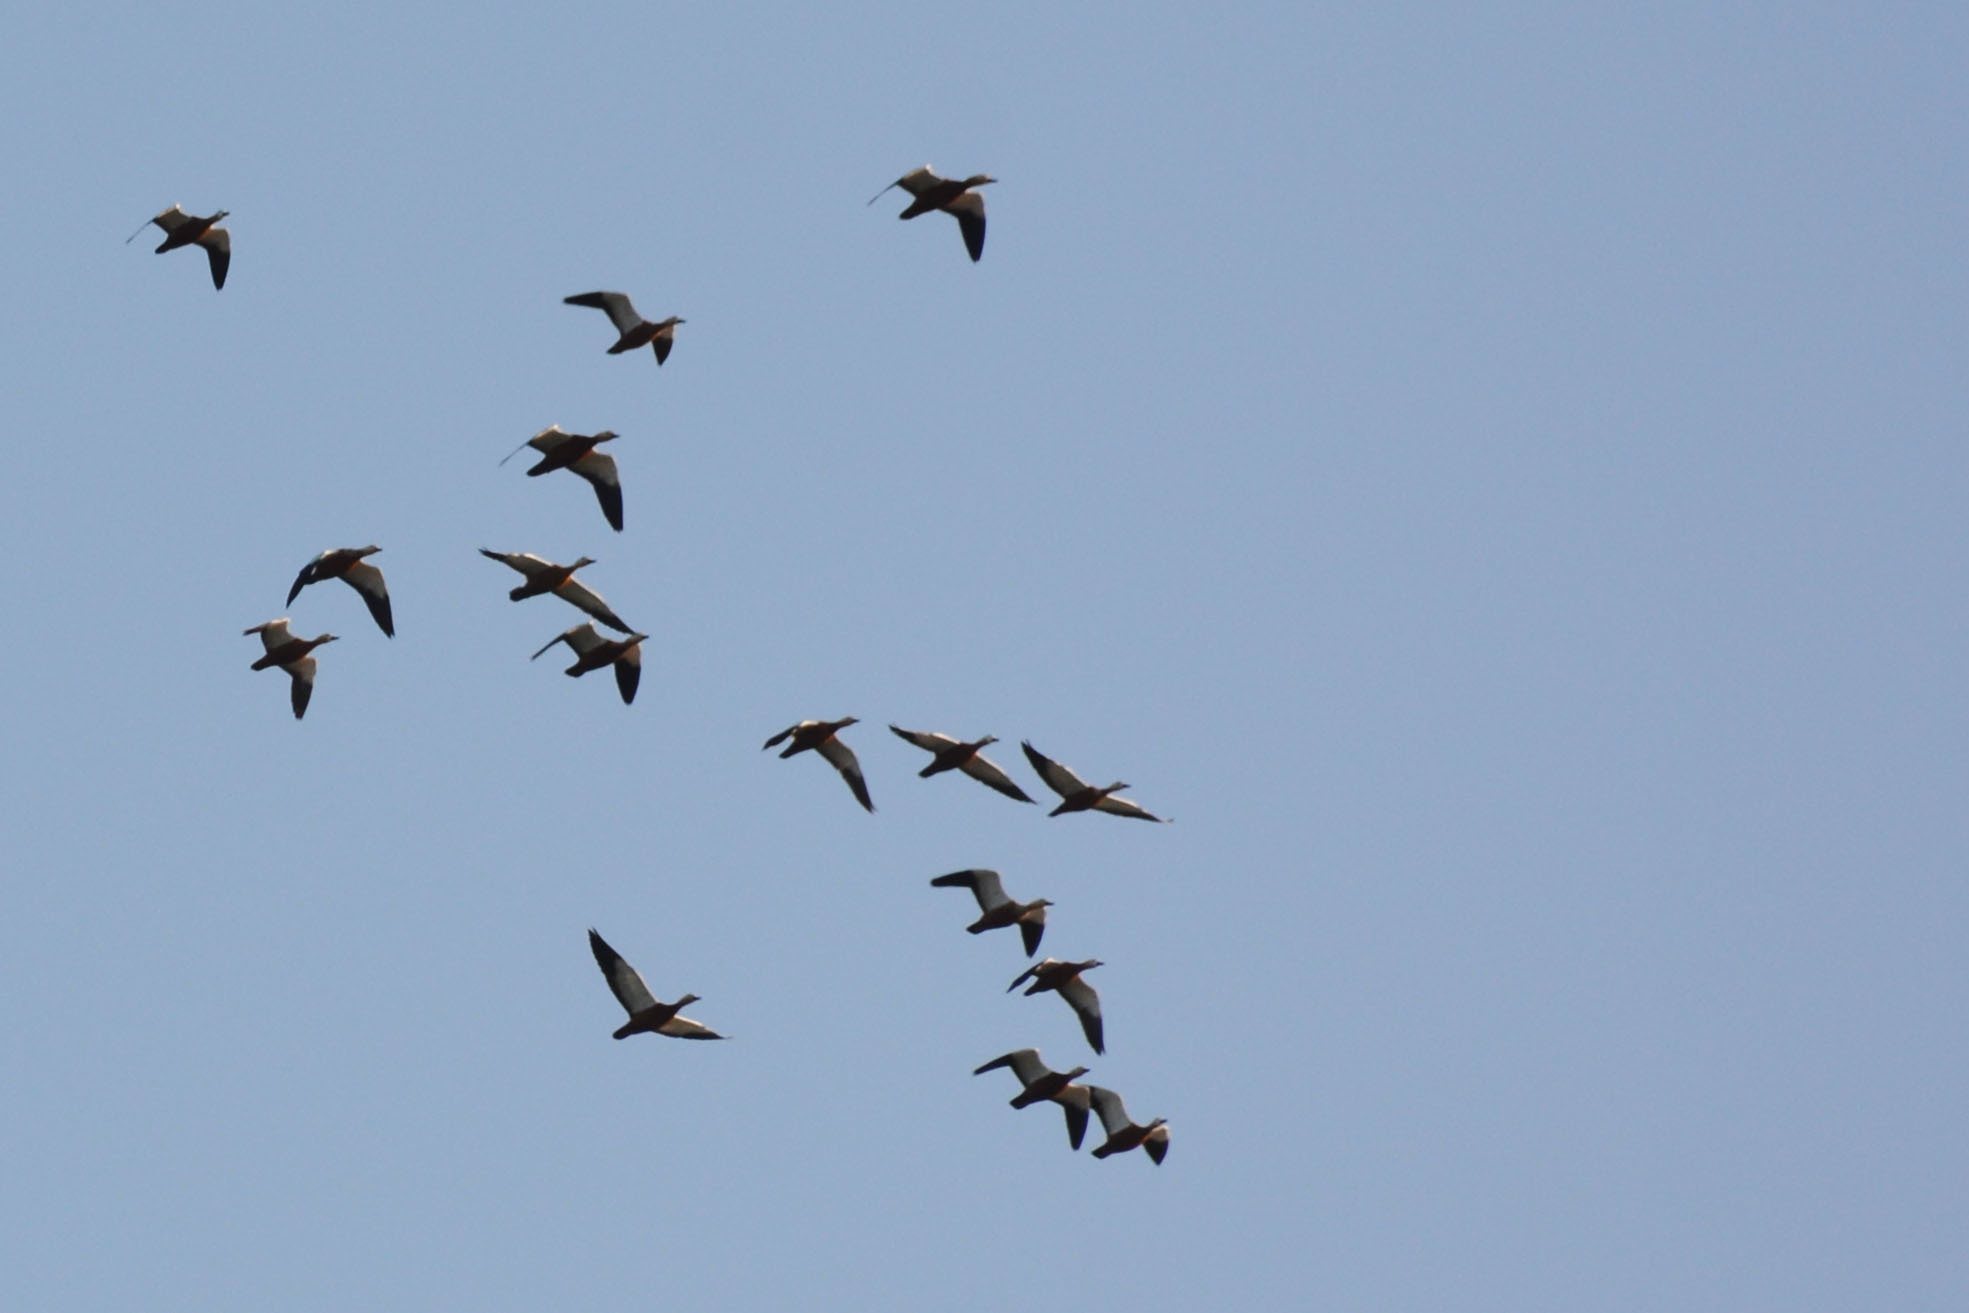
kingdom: Animalia
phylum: Chordata
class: Aves
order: Anseriformes
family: Anatidae
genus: Tadorna
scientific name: Tadorna ferruginea
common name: Ruddy shelduck
